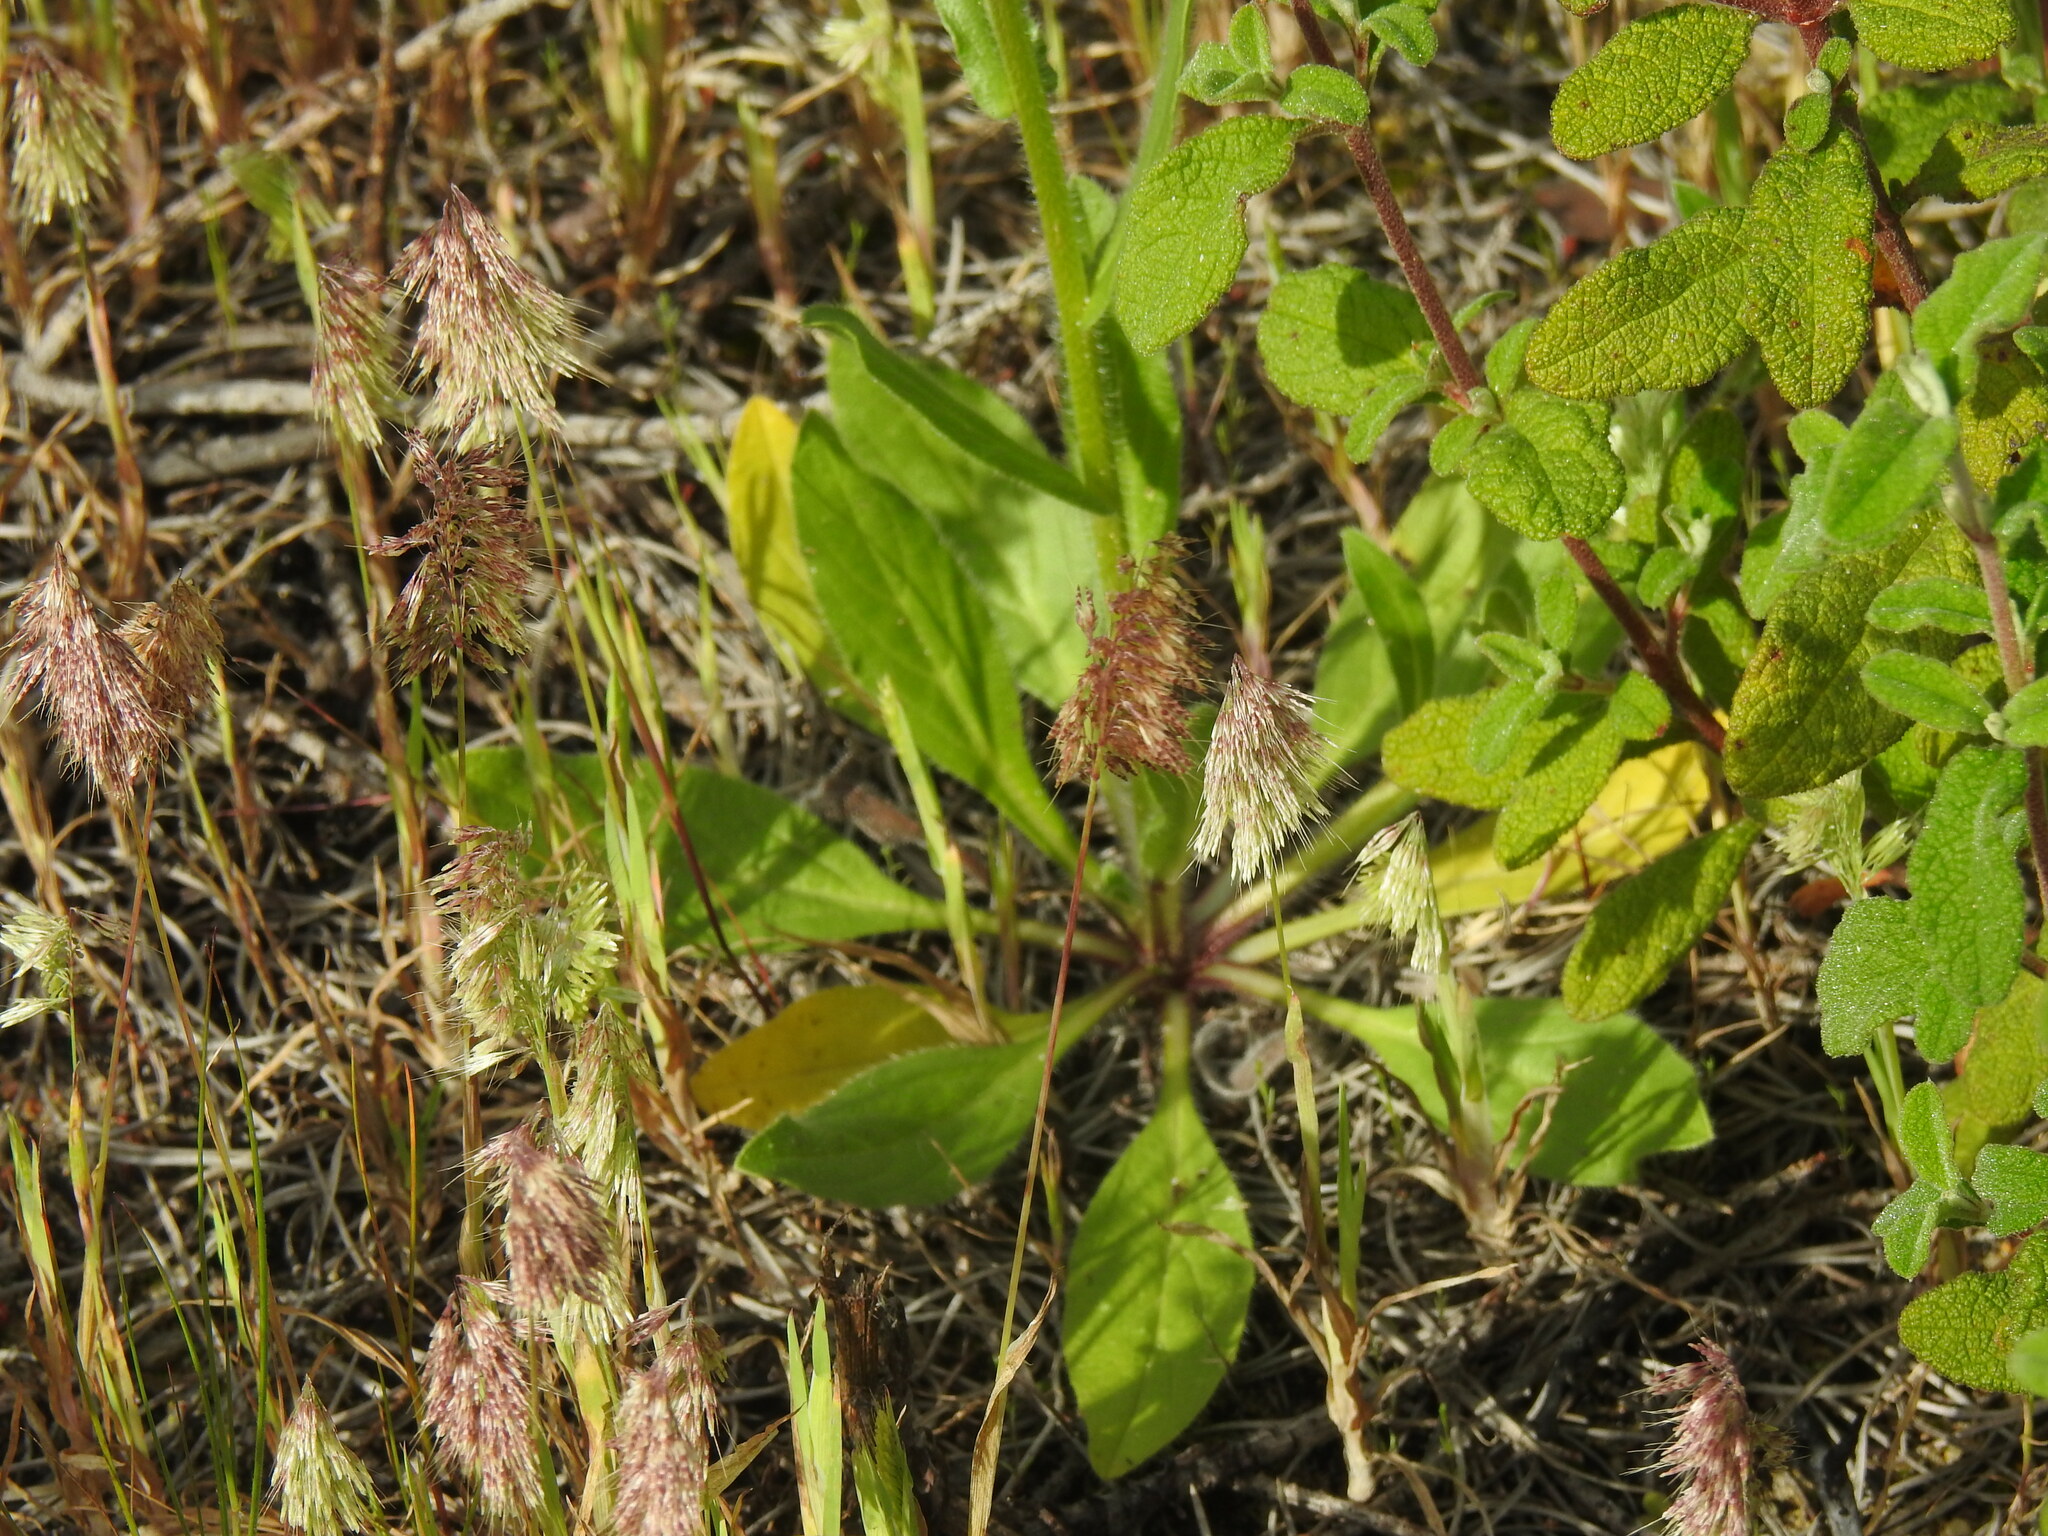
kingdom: Plantae
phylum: Tracheophyta
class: Liliopsida
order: Poales
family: Poaceae
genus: Lamarckia
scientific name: Lamarckia aurea
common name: Golden dog's-tail
